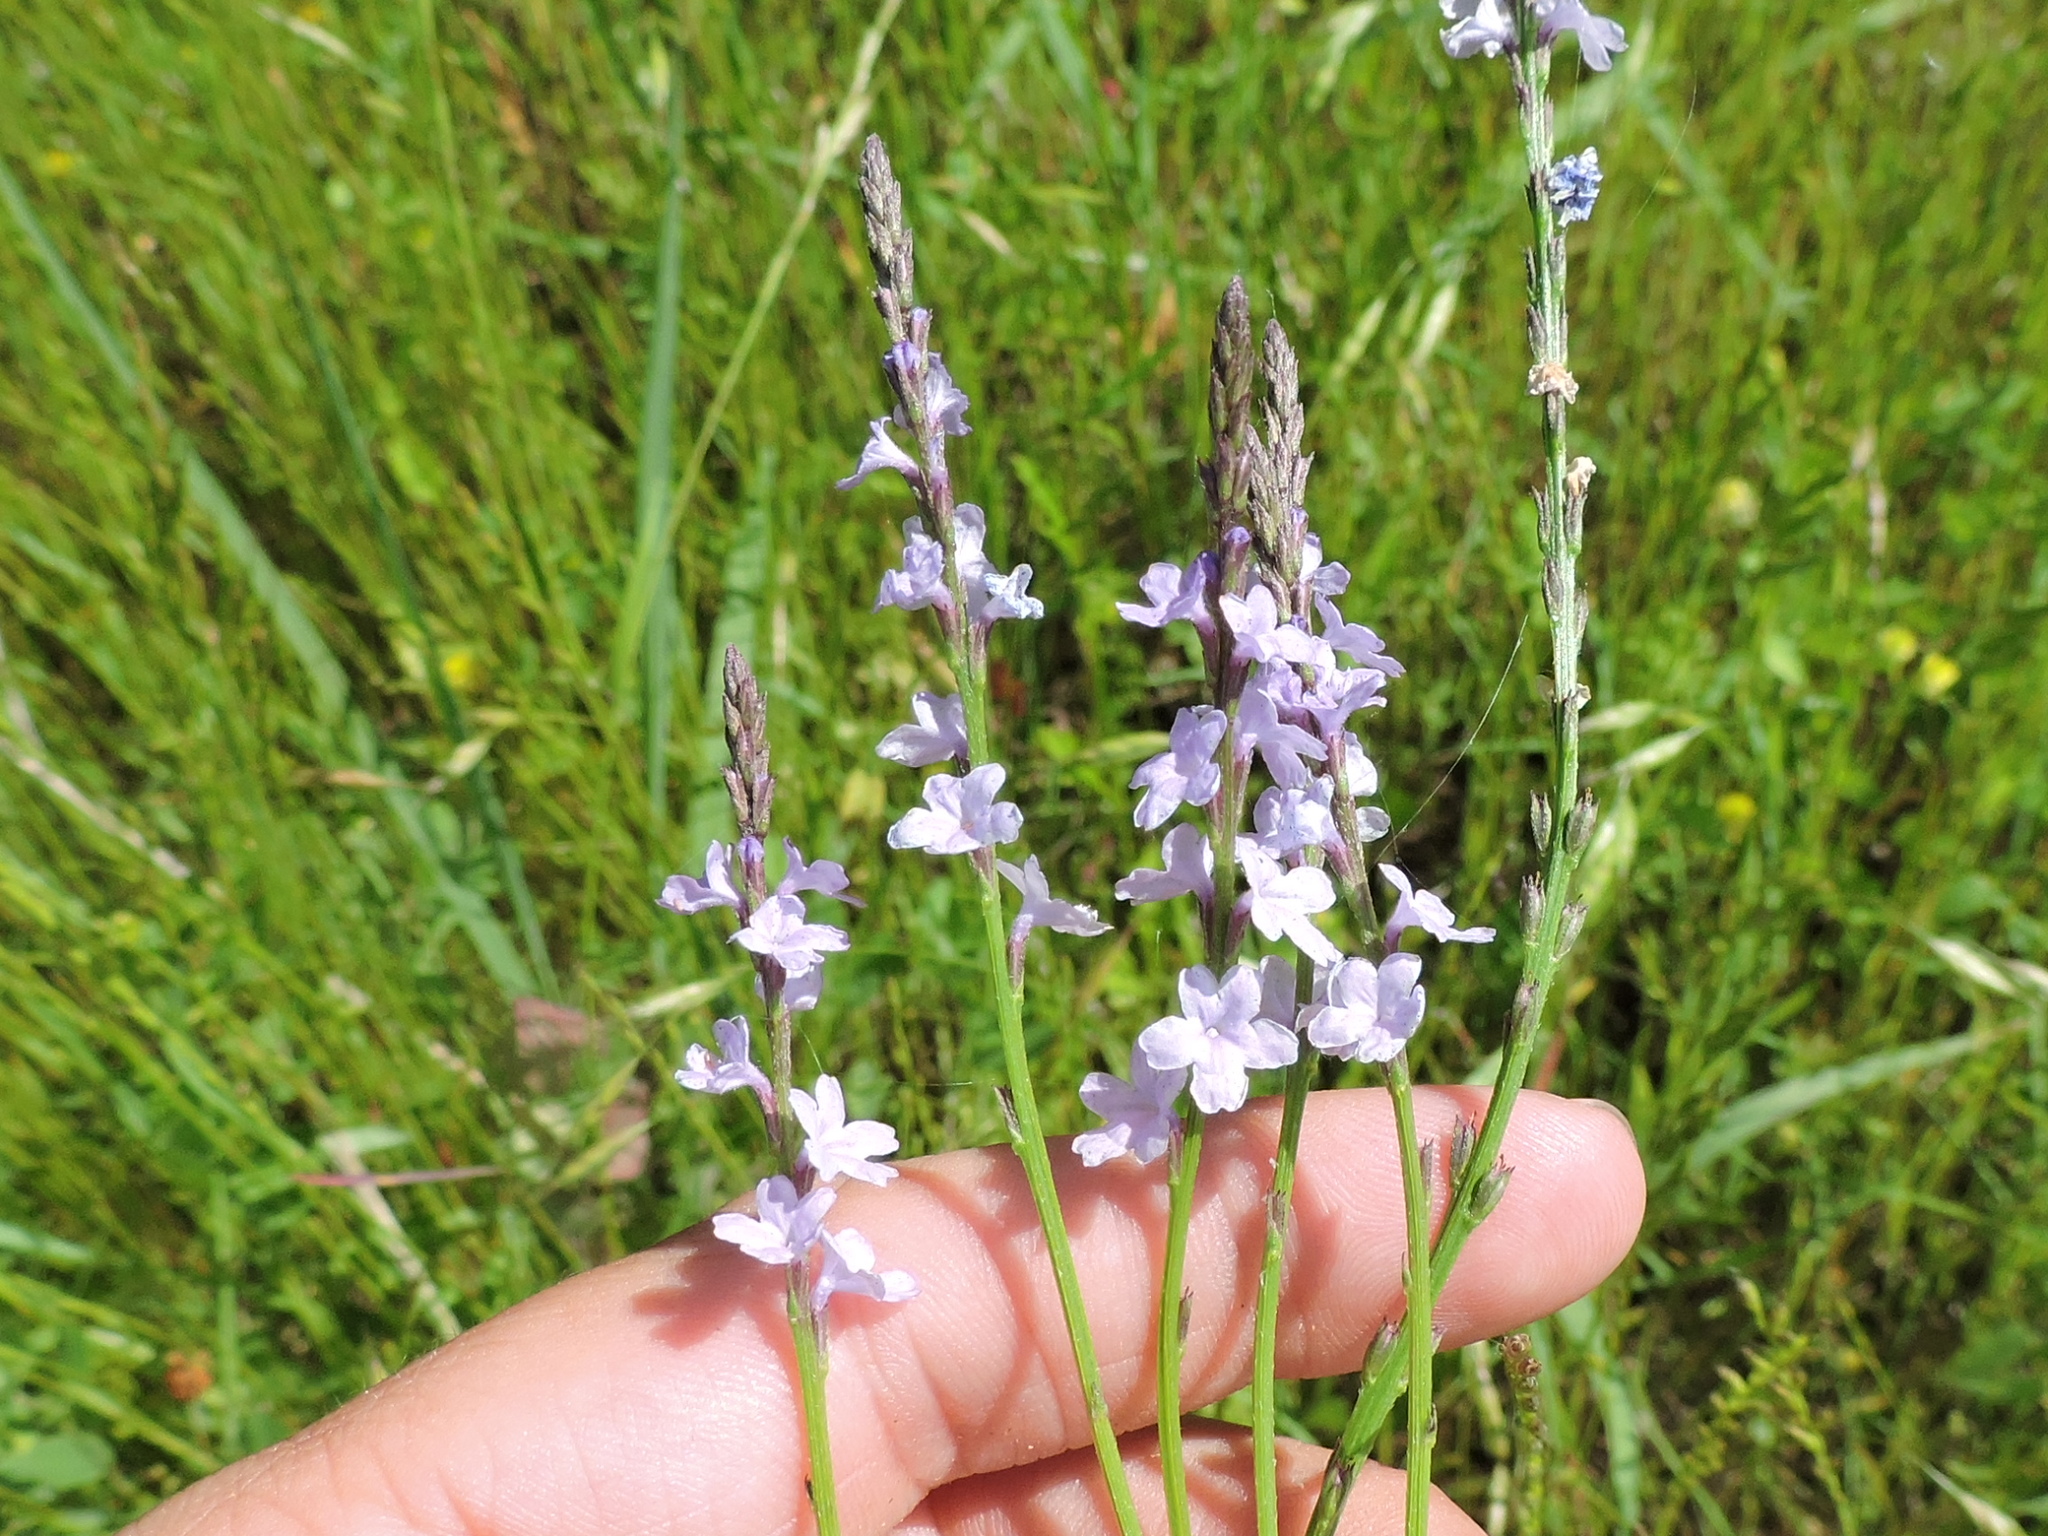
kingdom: Plantae
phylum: Tracheophyta
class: Magnoliopsida
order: Lamiales
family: Verbenaceae
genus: Verbena
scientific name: Verbena halei
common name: Texas vervain
